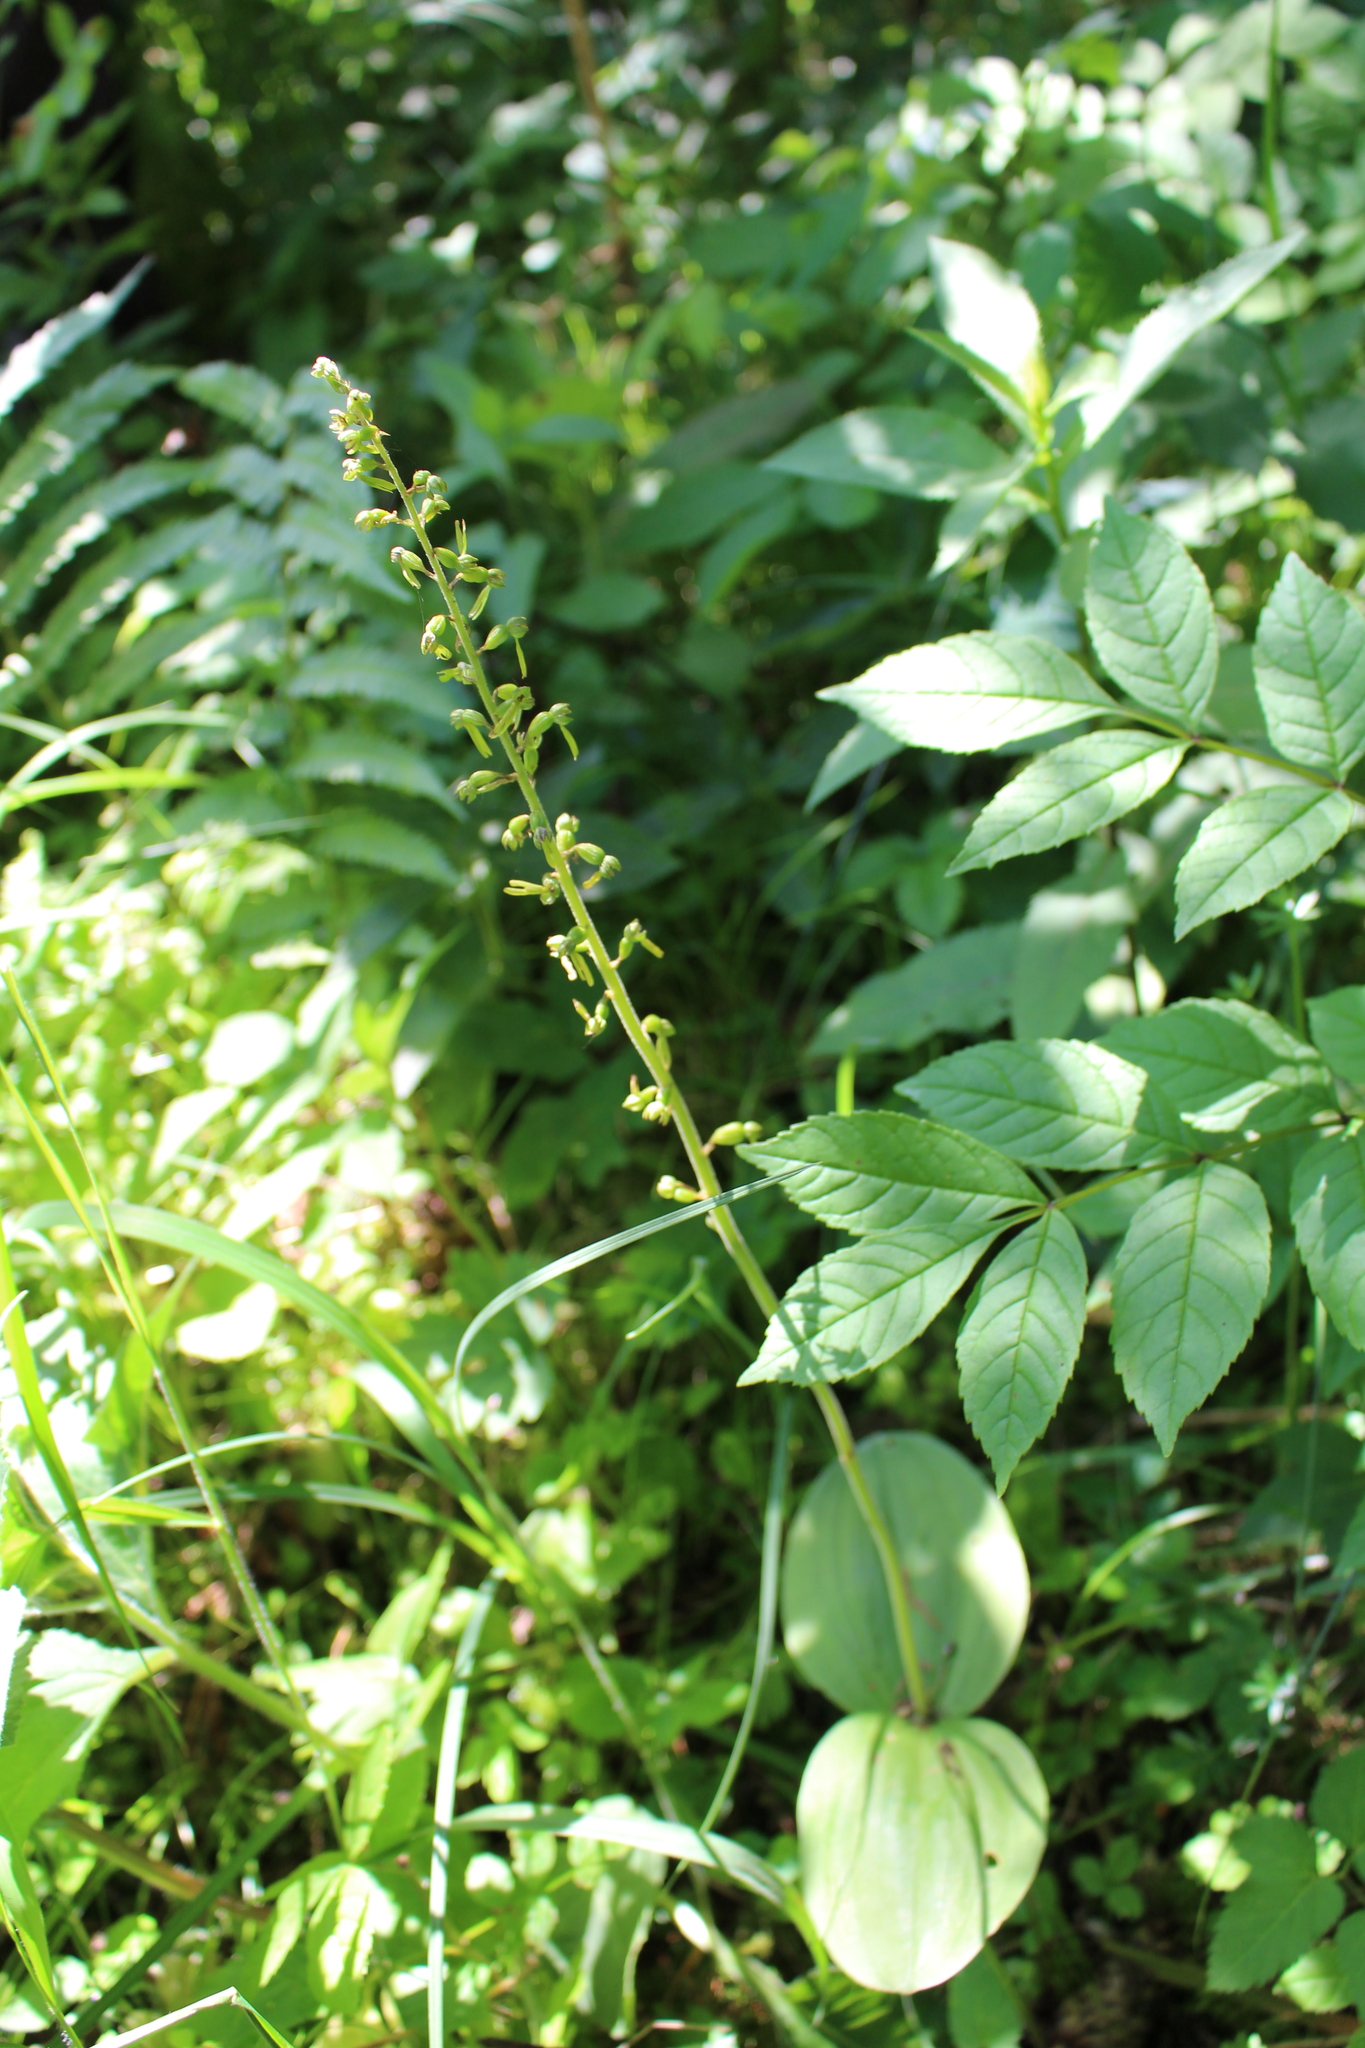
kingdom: Plantae
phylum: Tracheophyta
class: Liliopsida
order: Asparagales
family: Orchidaceae
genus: Neottia
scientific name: Neottia ovata
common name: Common twayblade
